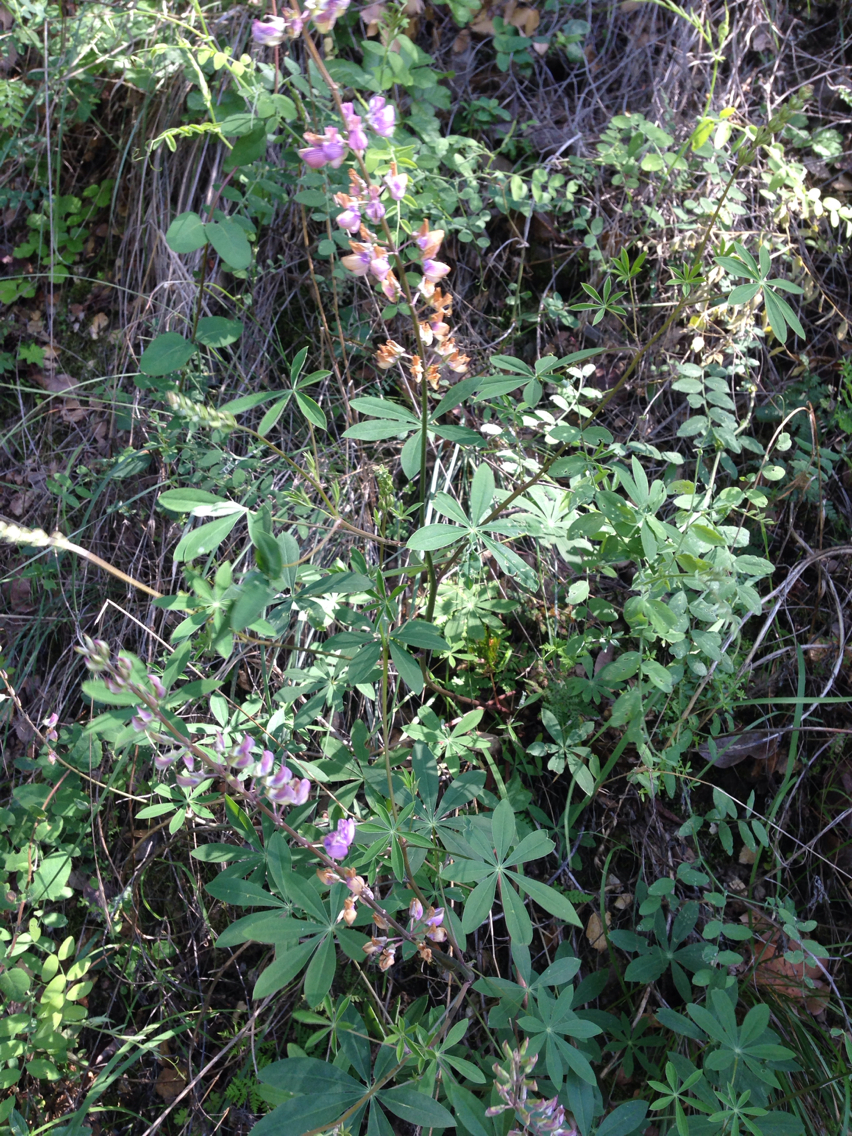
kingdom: Plantae
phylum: Tracheophyta
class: Magnoliopsida
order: Fabales
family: Fabaceae
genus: Lupinus
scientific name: Lupinus latifolius
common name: Broad-leaved lupine
